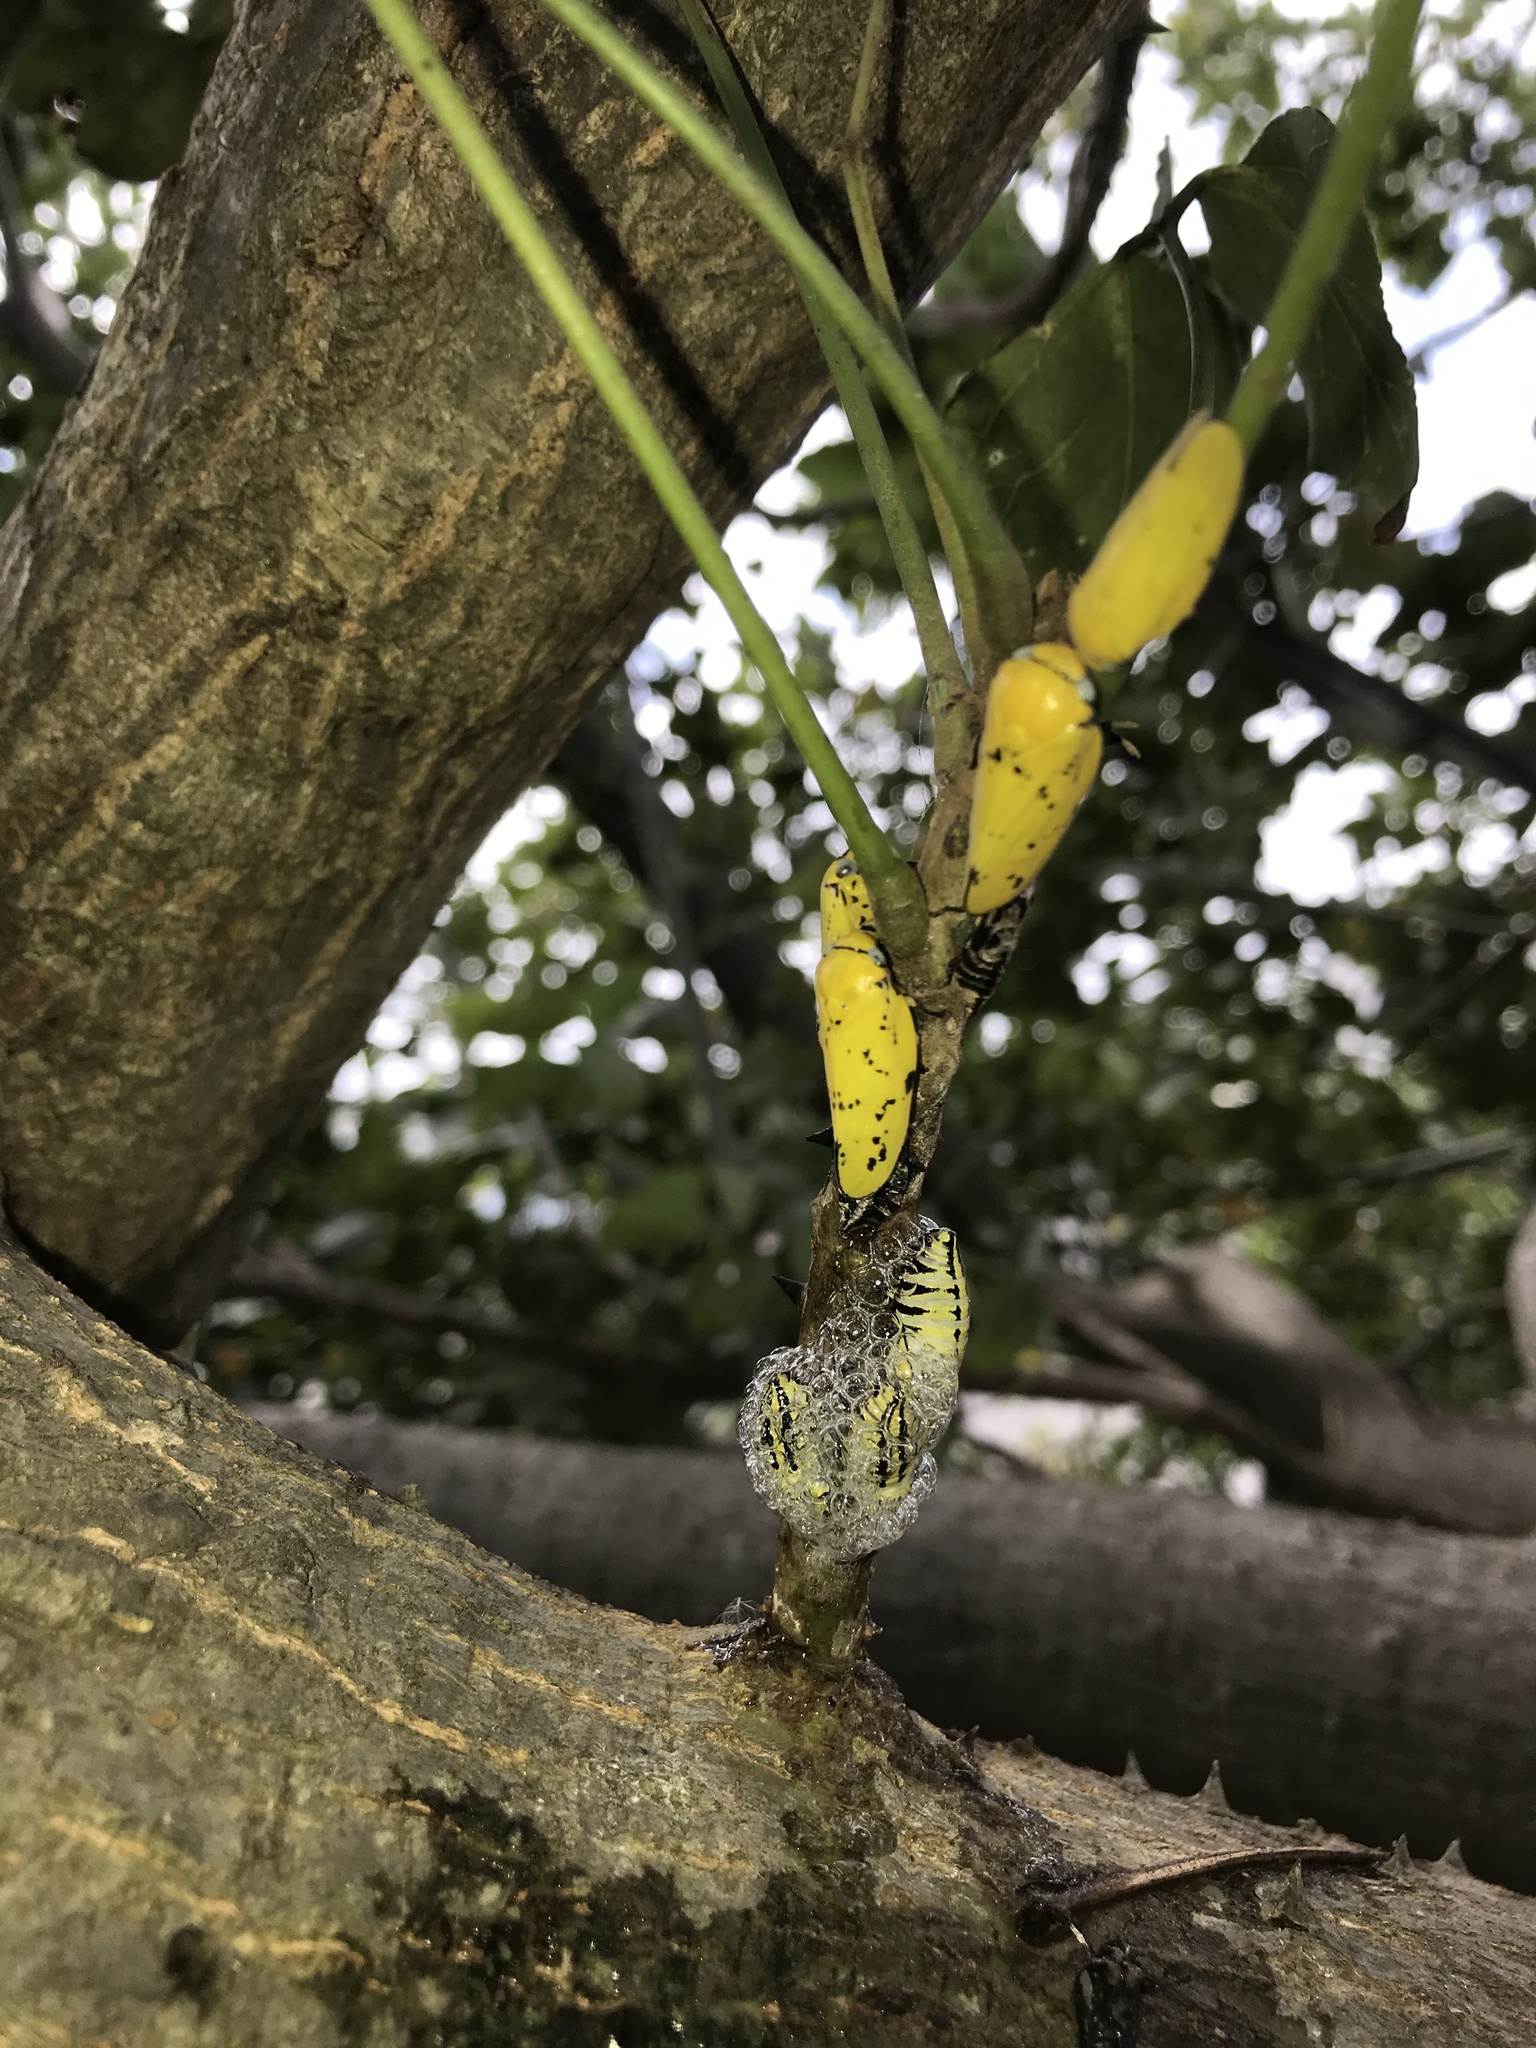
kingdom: Animalia
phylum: Arthropoda
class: Insecta
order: Hemiptera
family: Aphrophoridae
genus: Ptyelus
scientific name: Ptyelus flavescens
